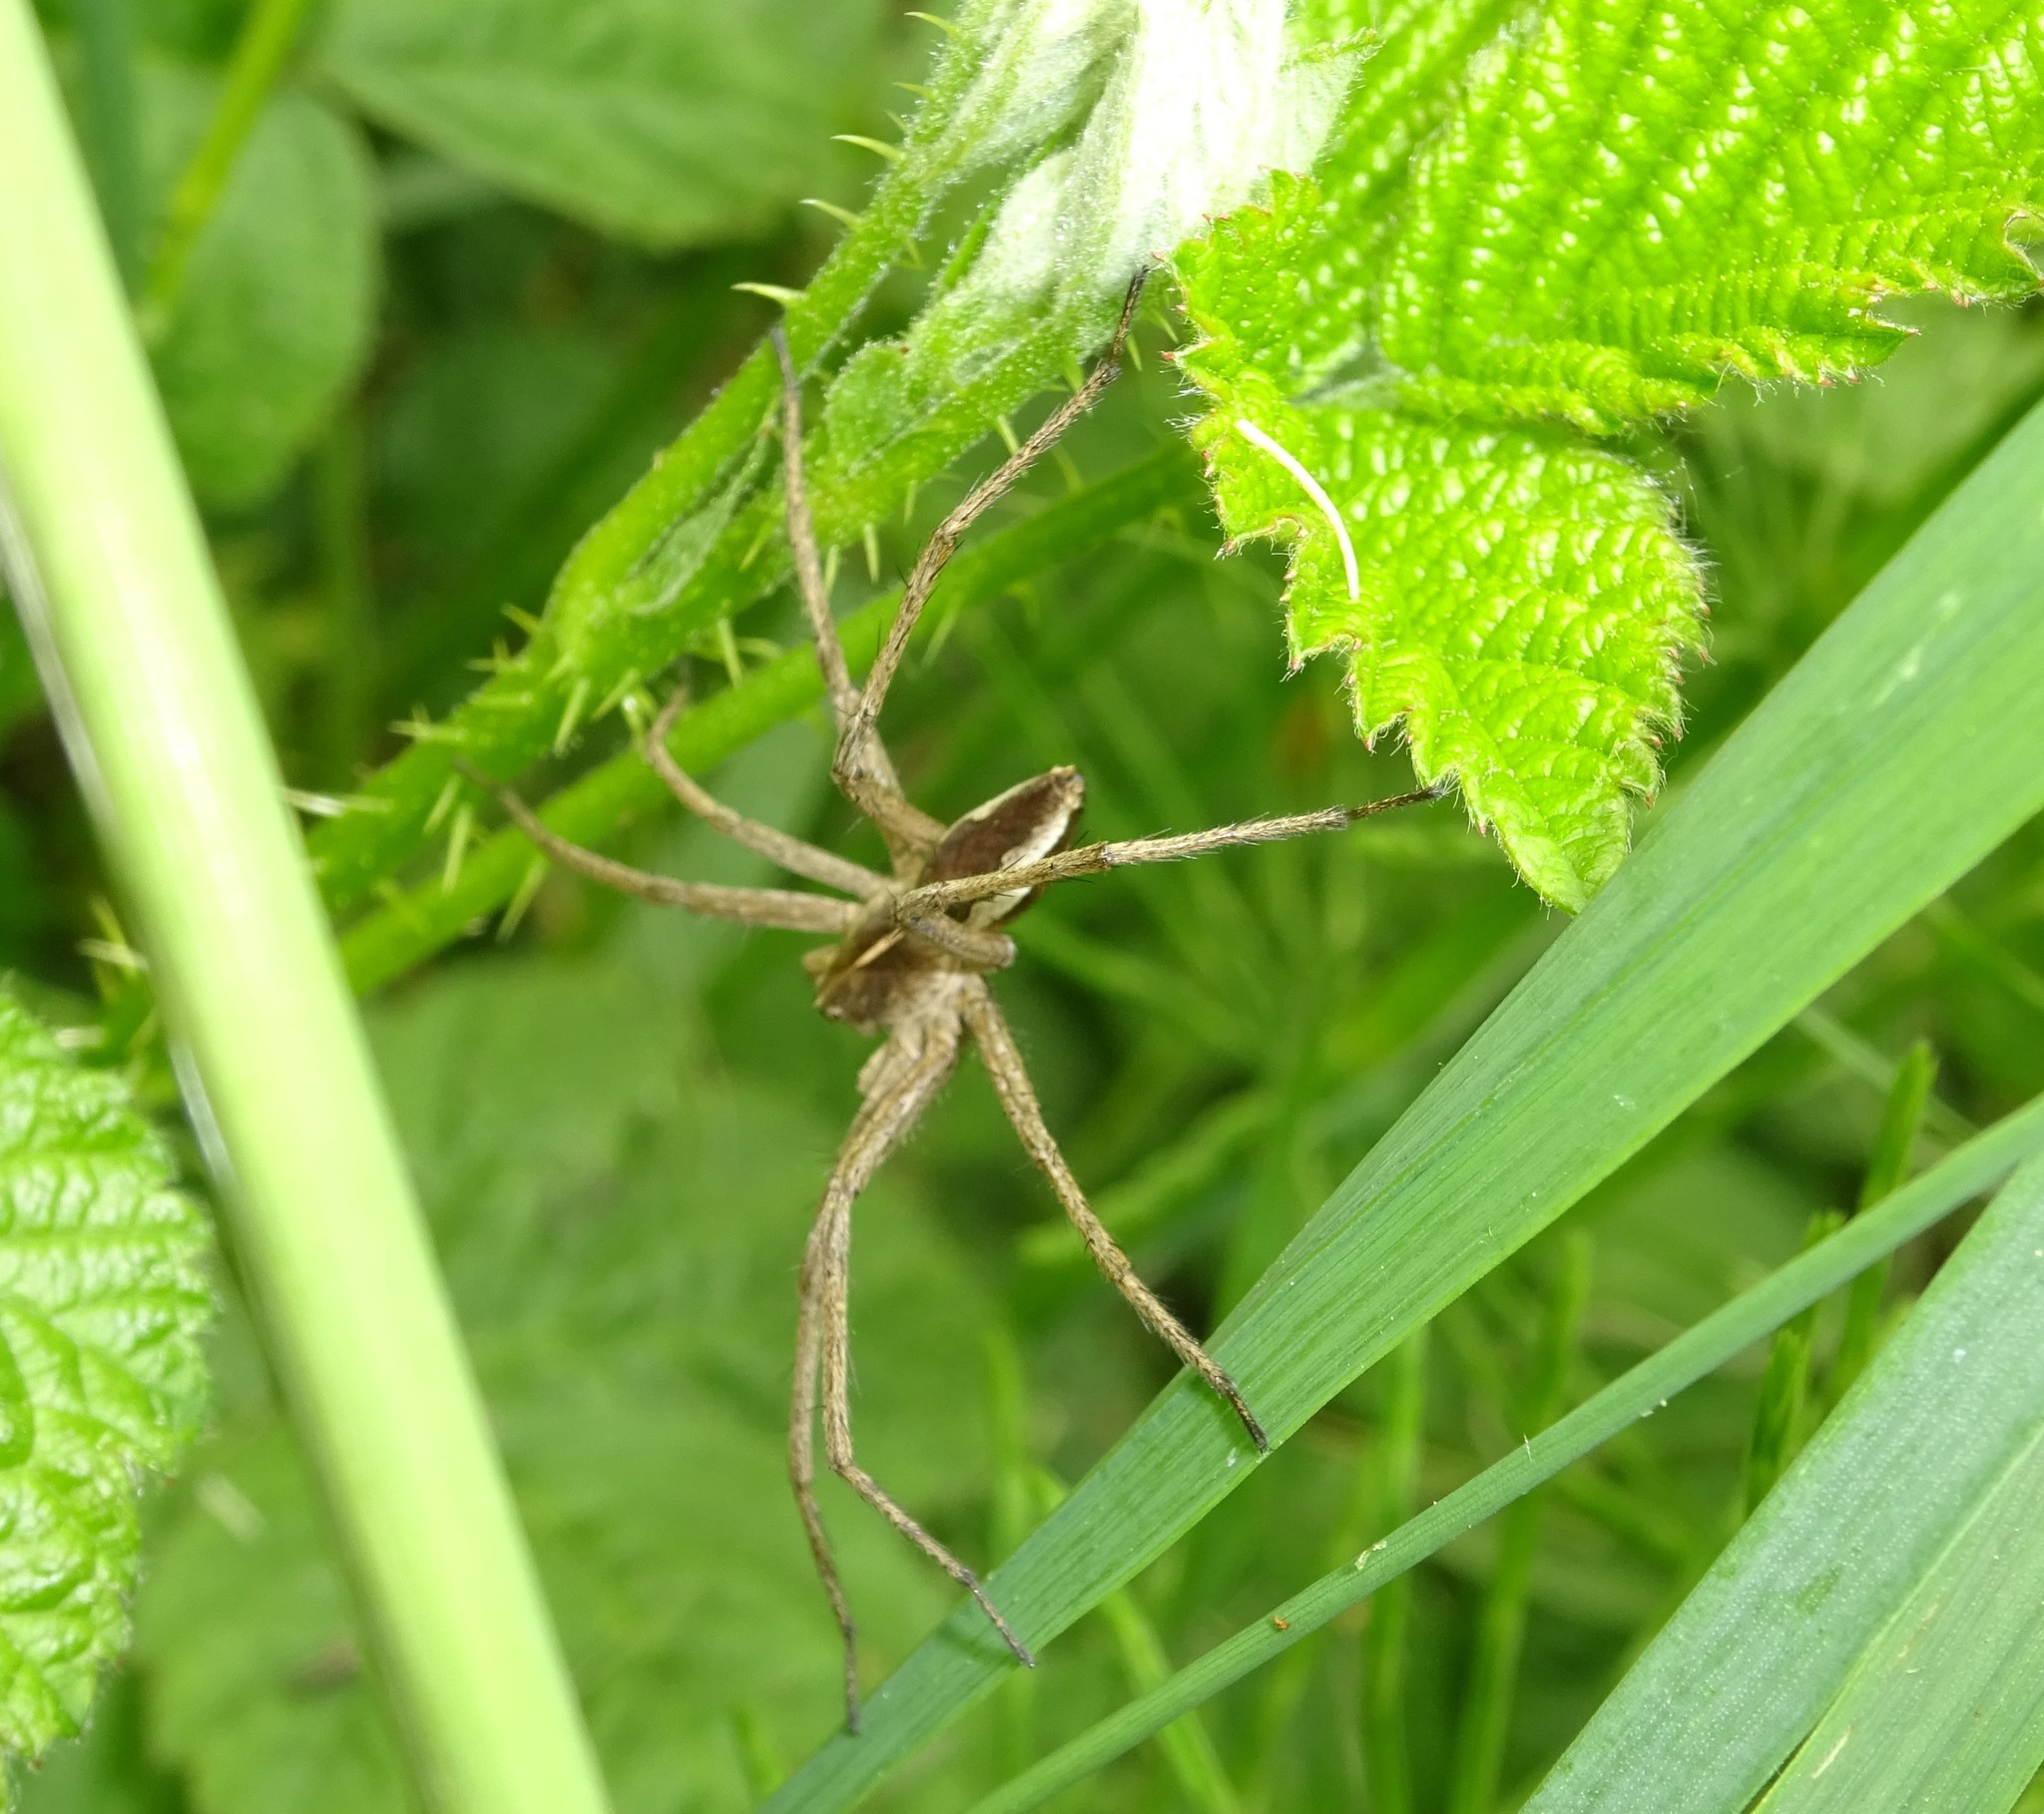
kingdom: Animalia
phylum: Arthropoda
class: Arachnida
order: Araneae
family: Pisauridae
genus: Pisaura
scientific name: Pisaura mirabilis
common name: Tent spider
